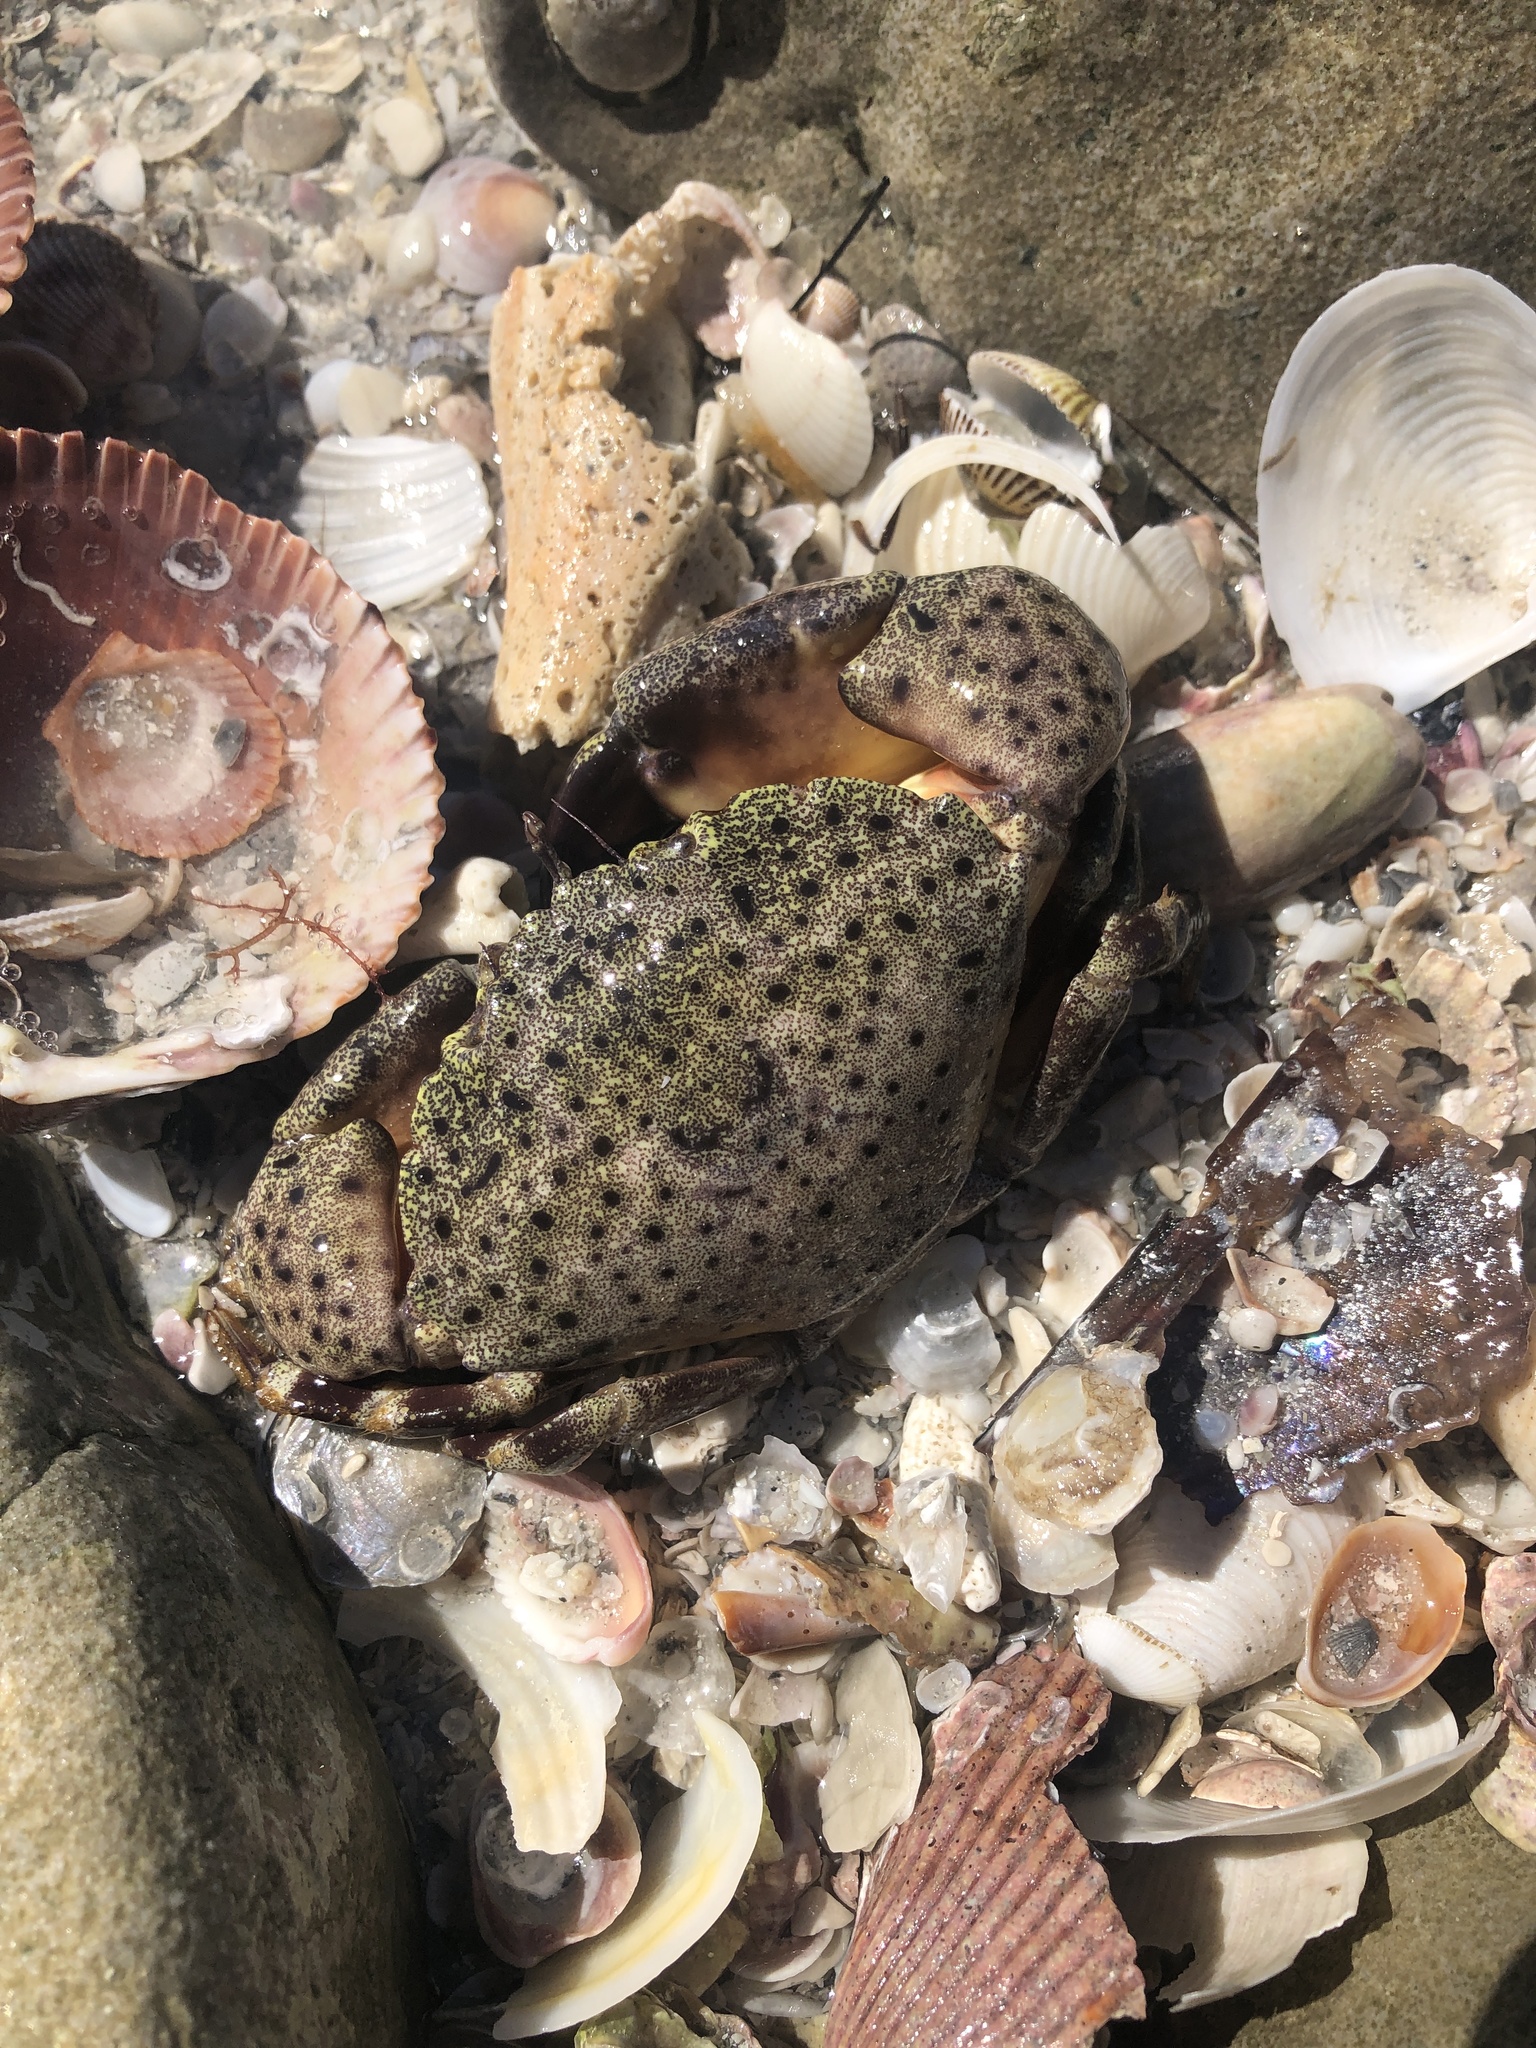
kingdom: Animalia
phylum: Arthropoda
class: Malacostraca
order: Decapoda
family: Menippidae
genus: Menippe
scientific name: Menippe mercenaria
